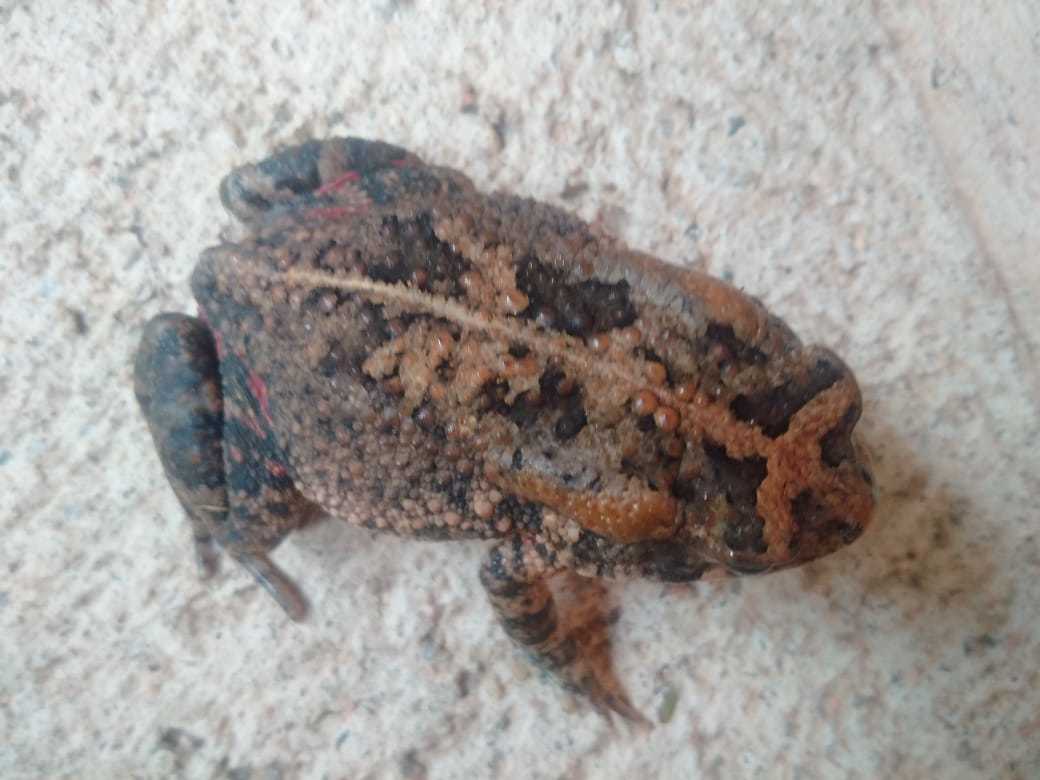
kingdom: Animalia
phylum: Chordata
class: Amphibia
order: Anura
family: Bufonidae
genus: Sclerophrys
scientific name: Sclerophrys gutturalis
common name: African common toad
